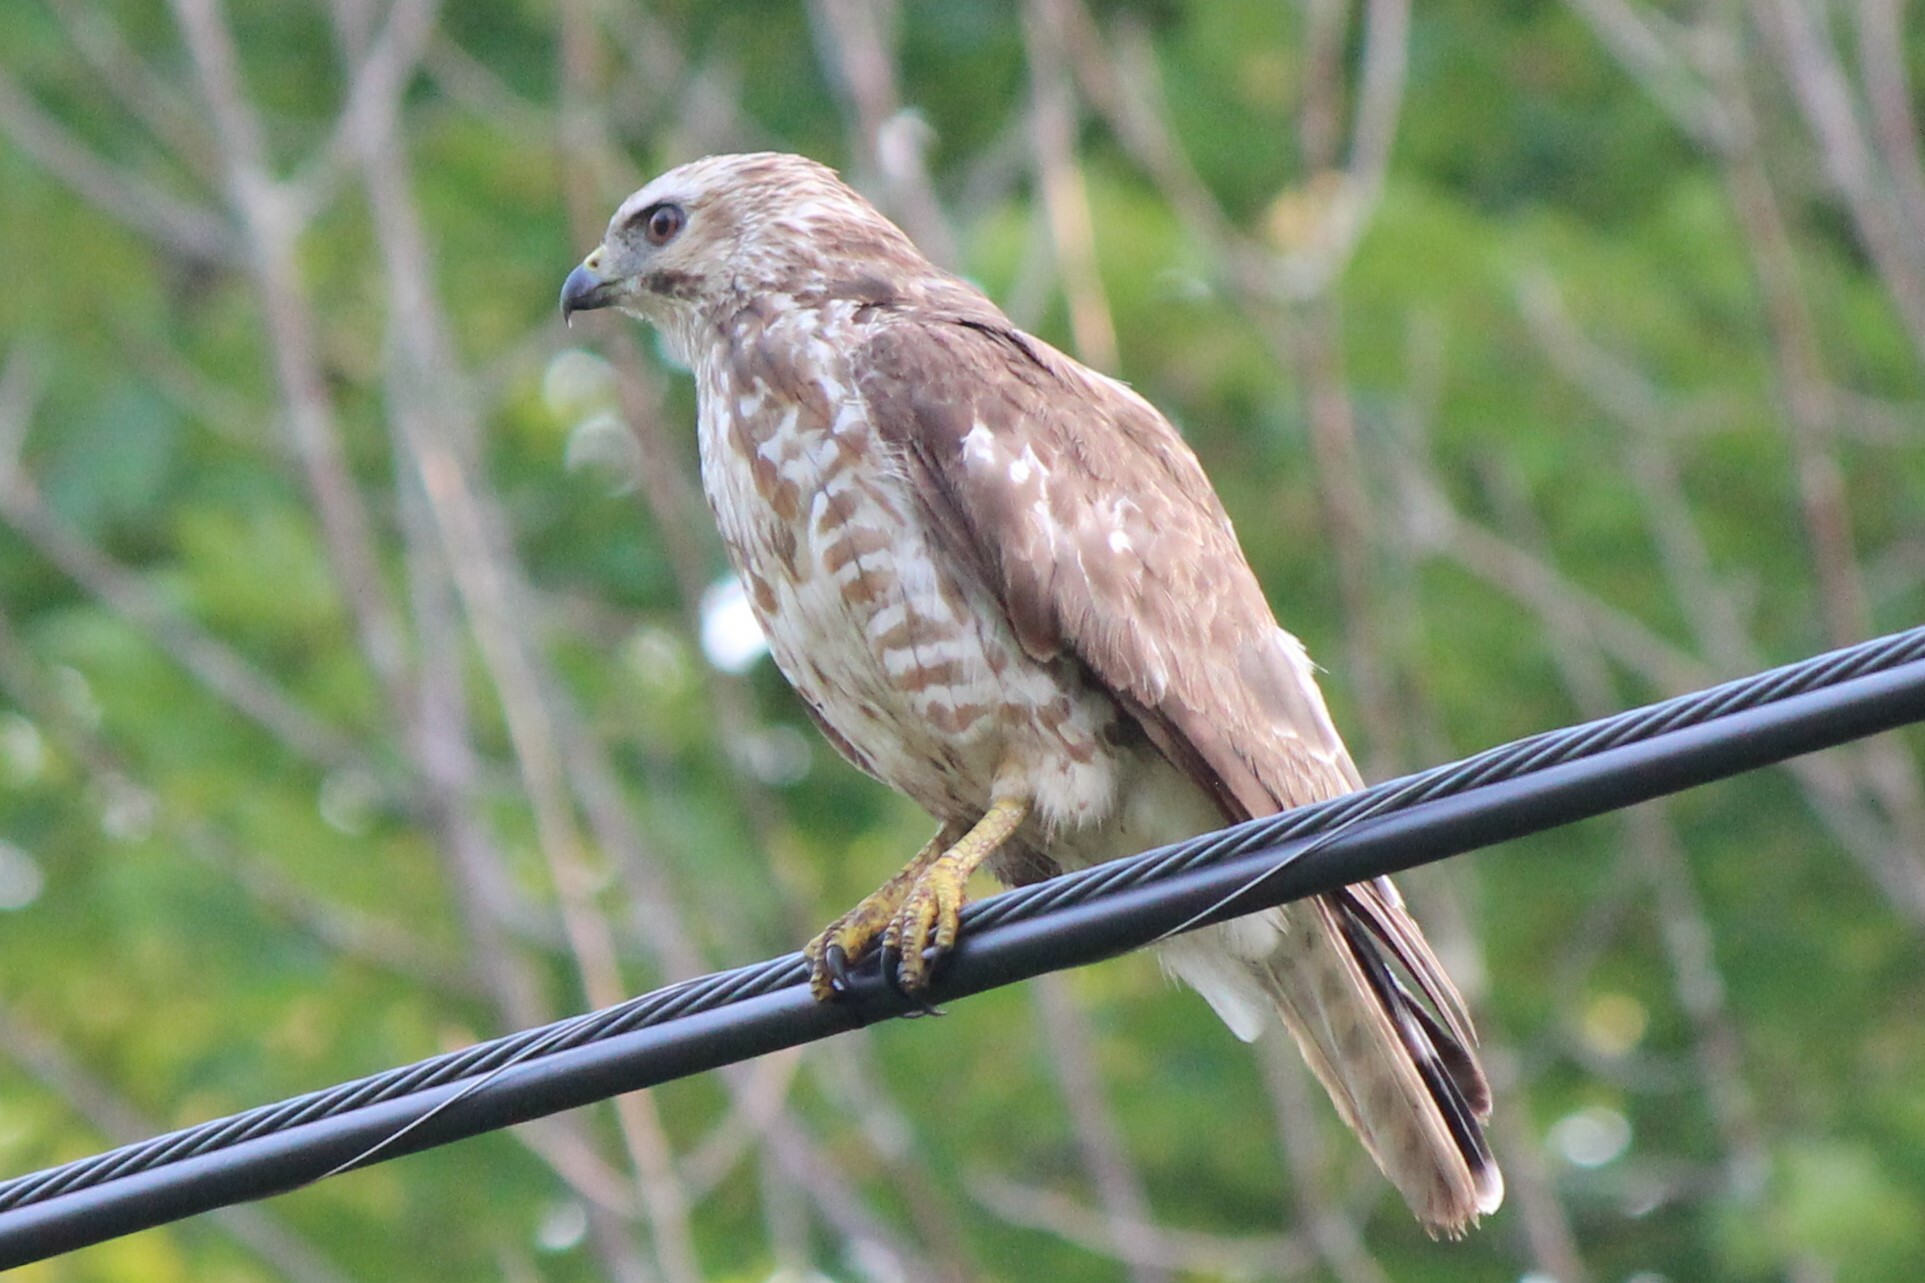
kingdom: Animalia
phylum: Chordata
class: Aves
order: Accipitriformes
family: Accipitridae
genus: Buteo
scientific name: Buteo platypterus
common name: Broad-winged hawk
